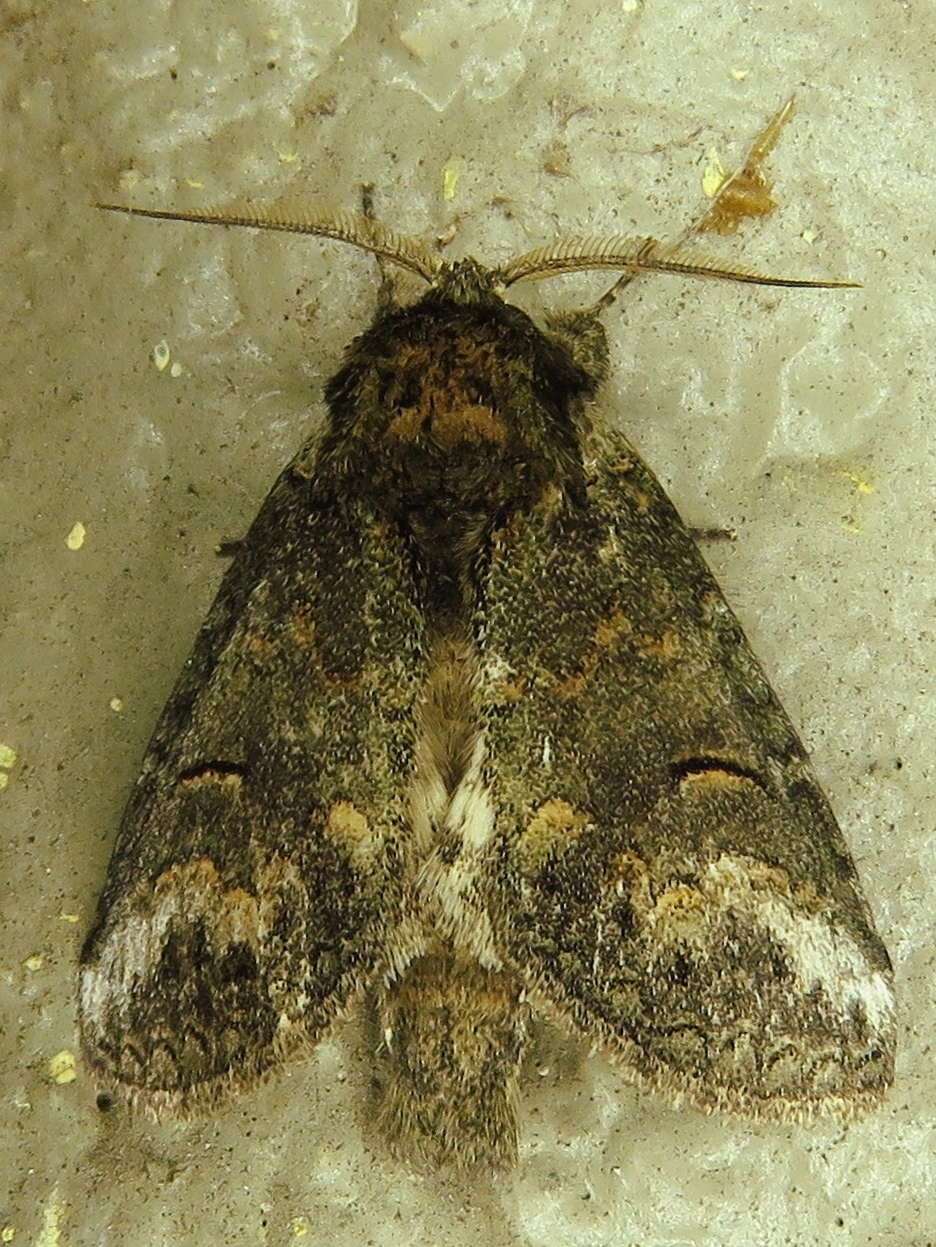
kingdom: Animalia
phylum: Arthropoda
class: Insecta
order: Lepidoptera
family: Notodontidae
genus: Rifargia
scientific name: Rifargia
